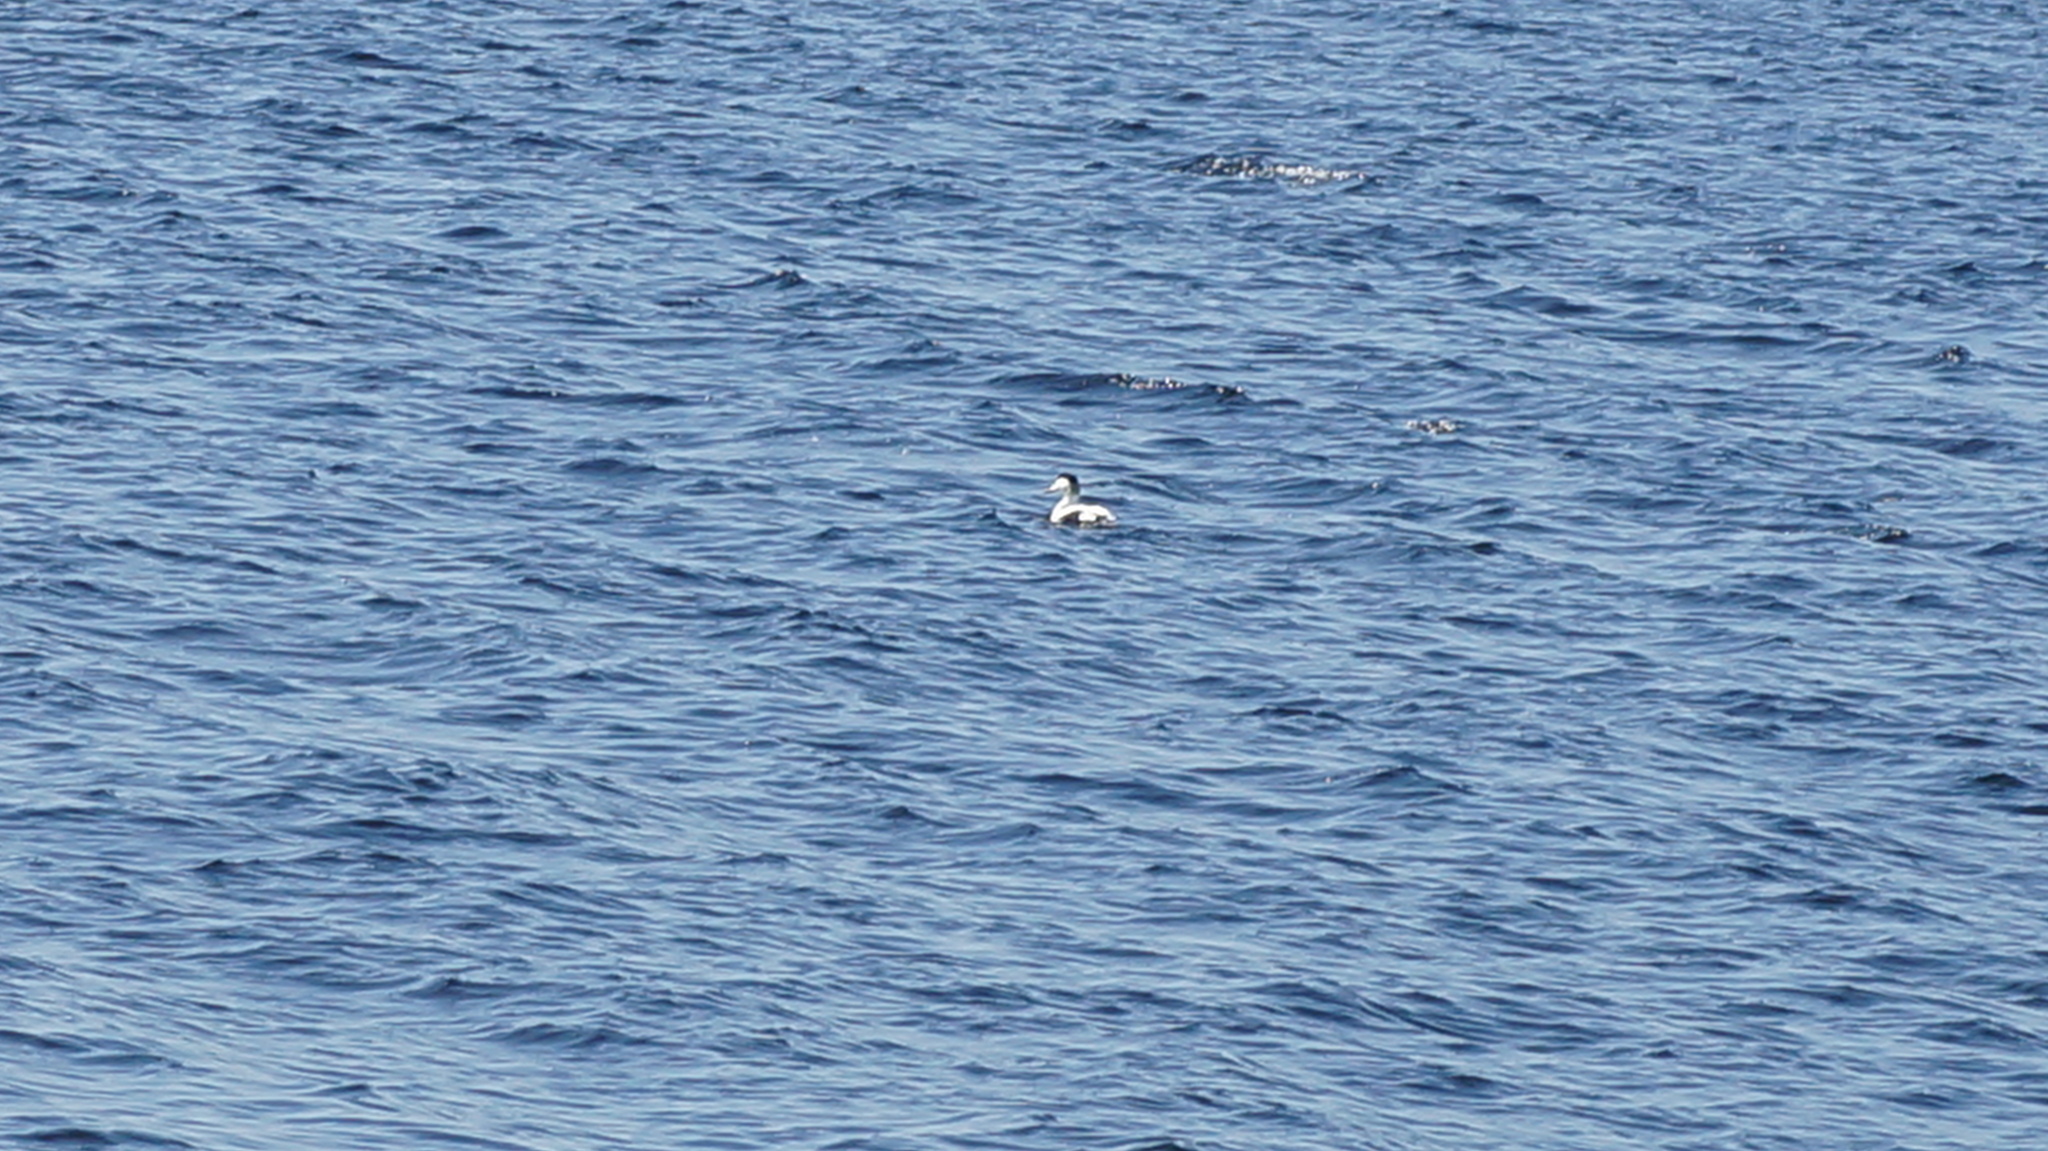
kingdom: Animalia
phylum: Chordata
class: Aves
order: Anseriformes
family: Anatidae
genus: Somateria
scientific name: Somateria mollissima
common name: Common eider
